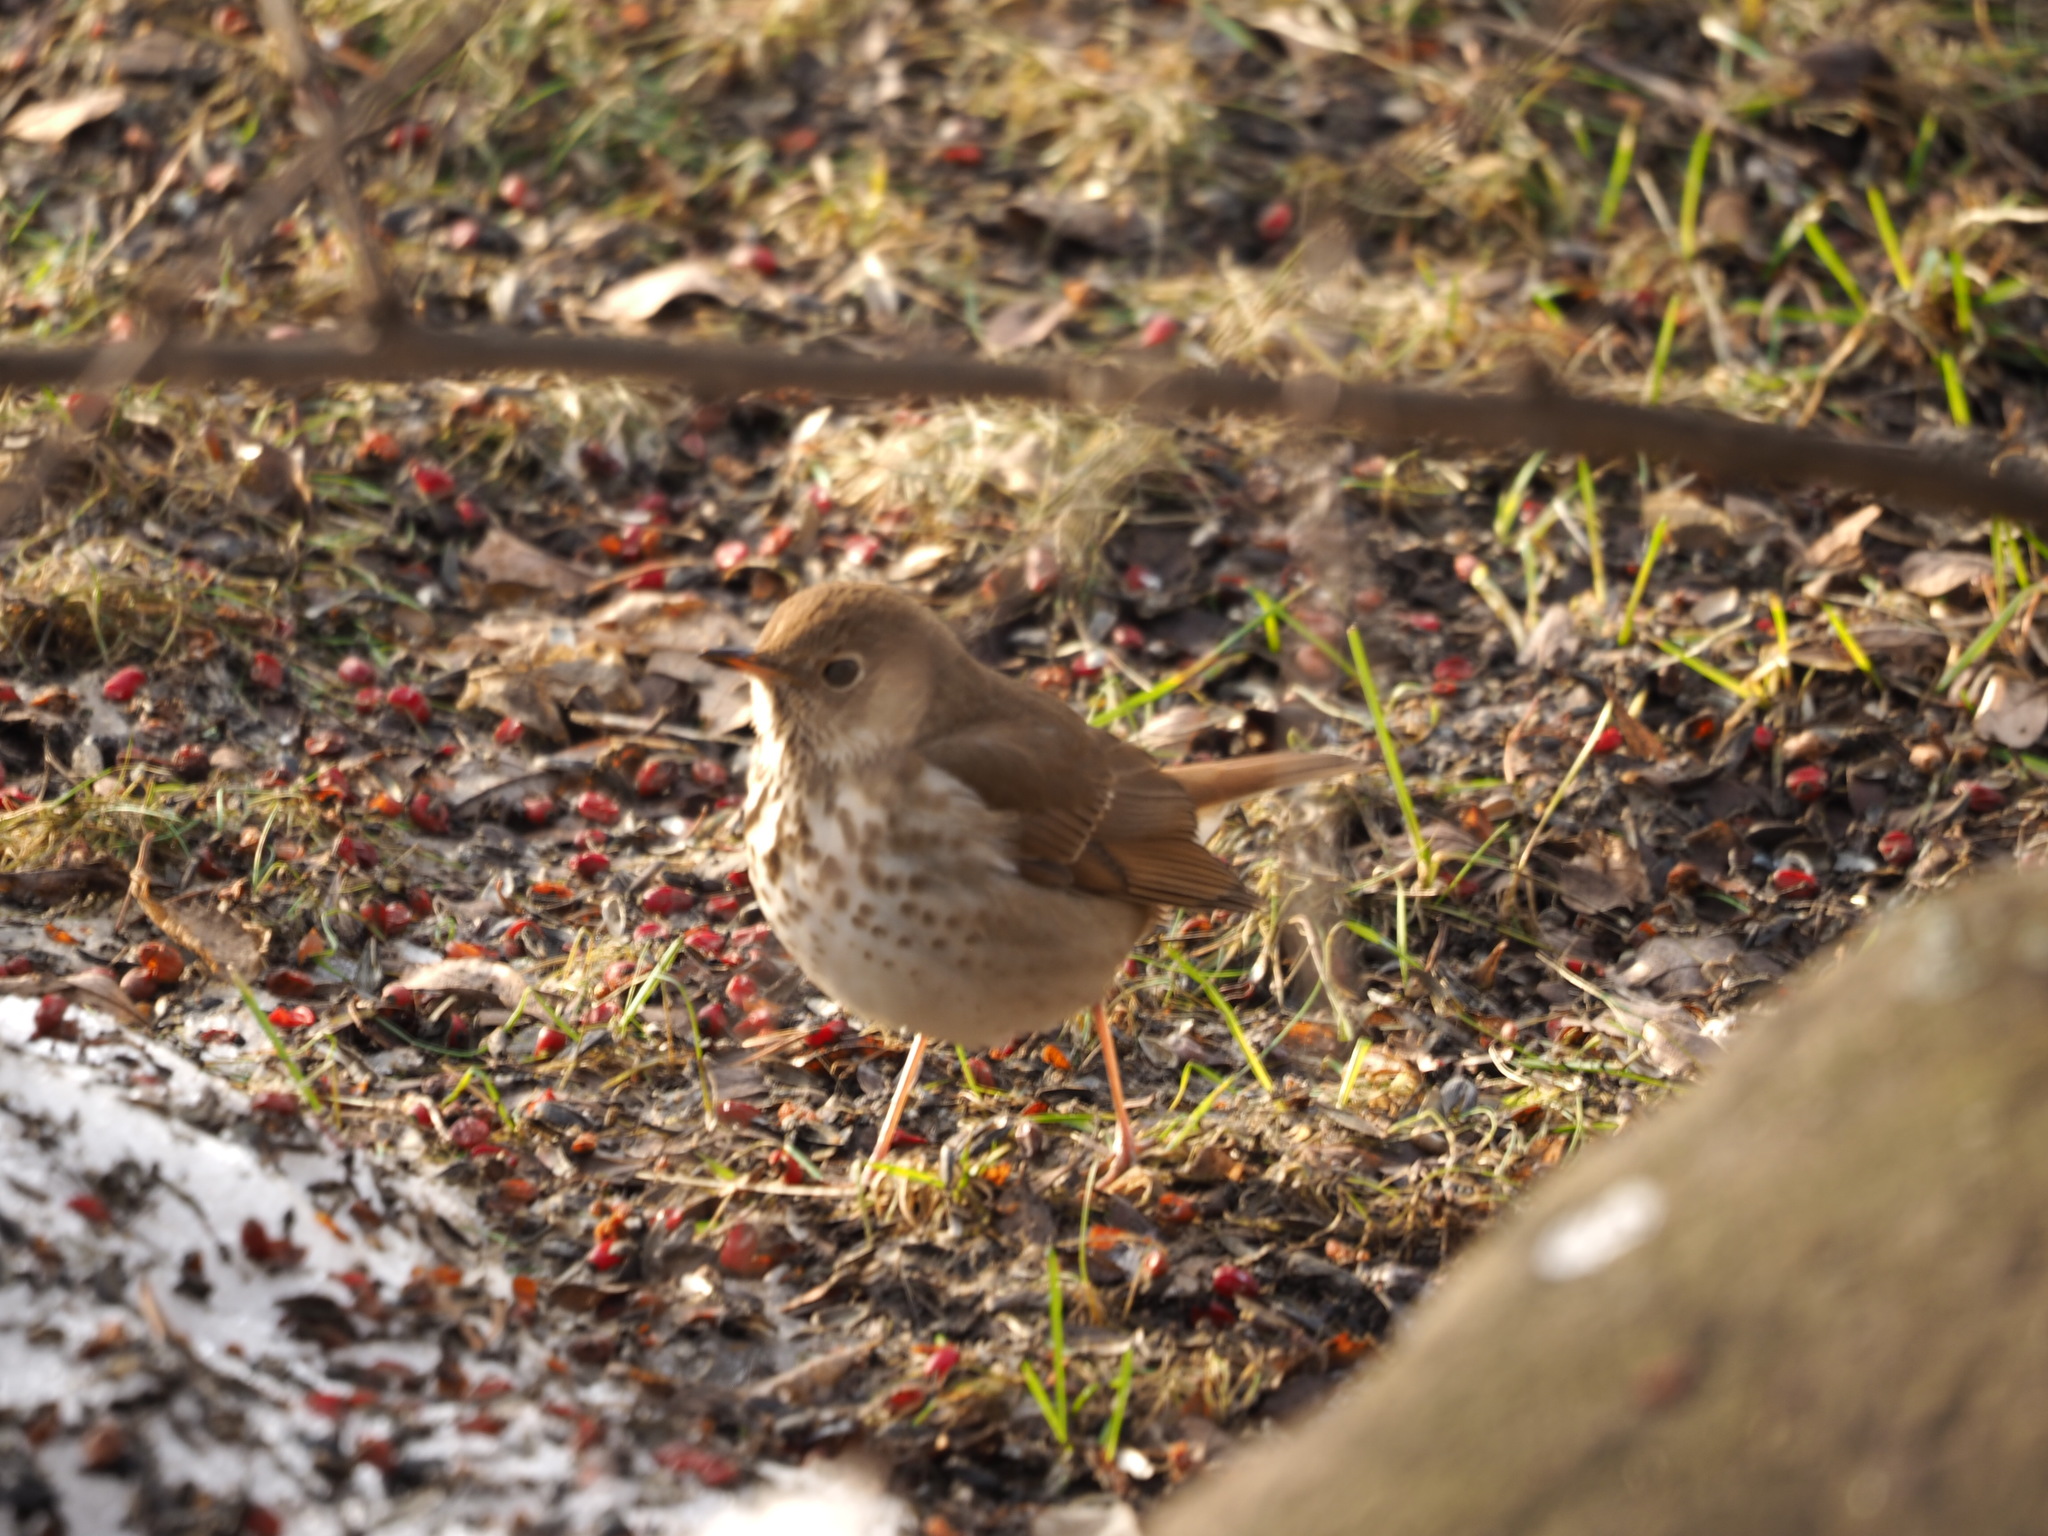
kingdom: Animalia
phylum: Chordata
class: Aves
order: Passeriformes
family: Turdidae
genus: Catharus
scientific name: Catharus guttatus
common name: Hermit thrush
